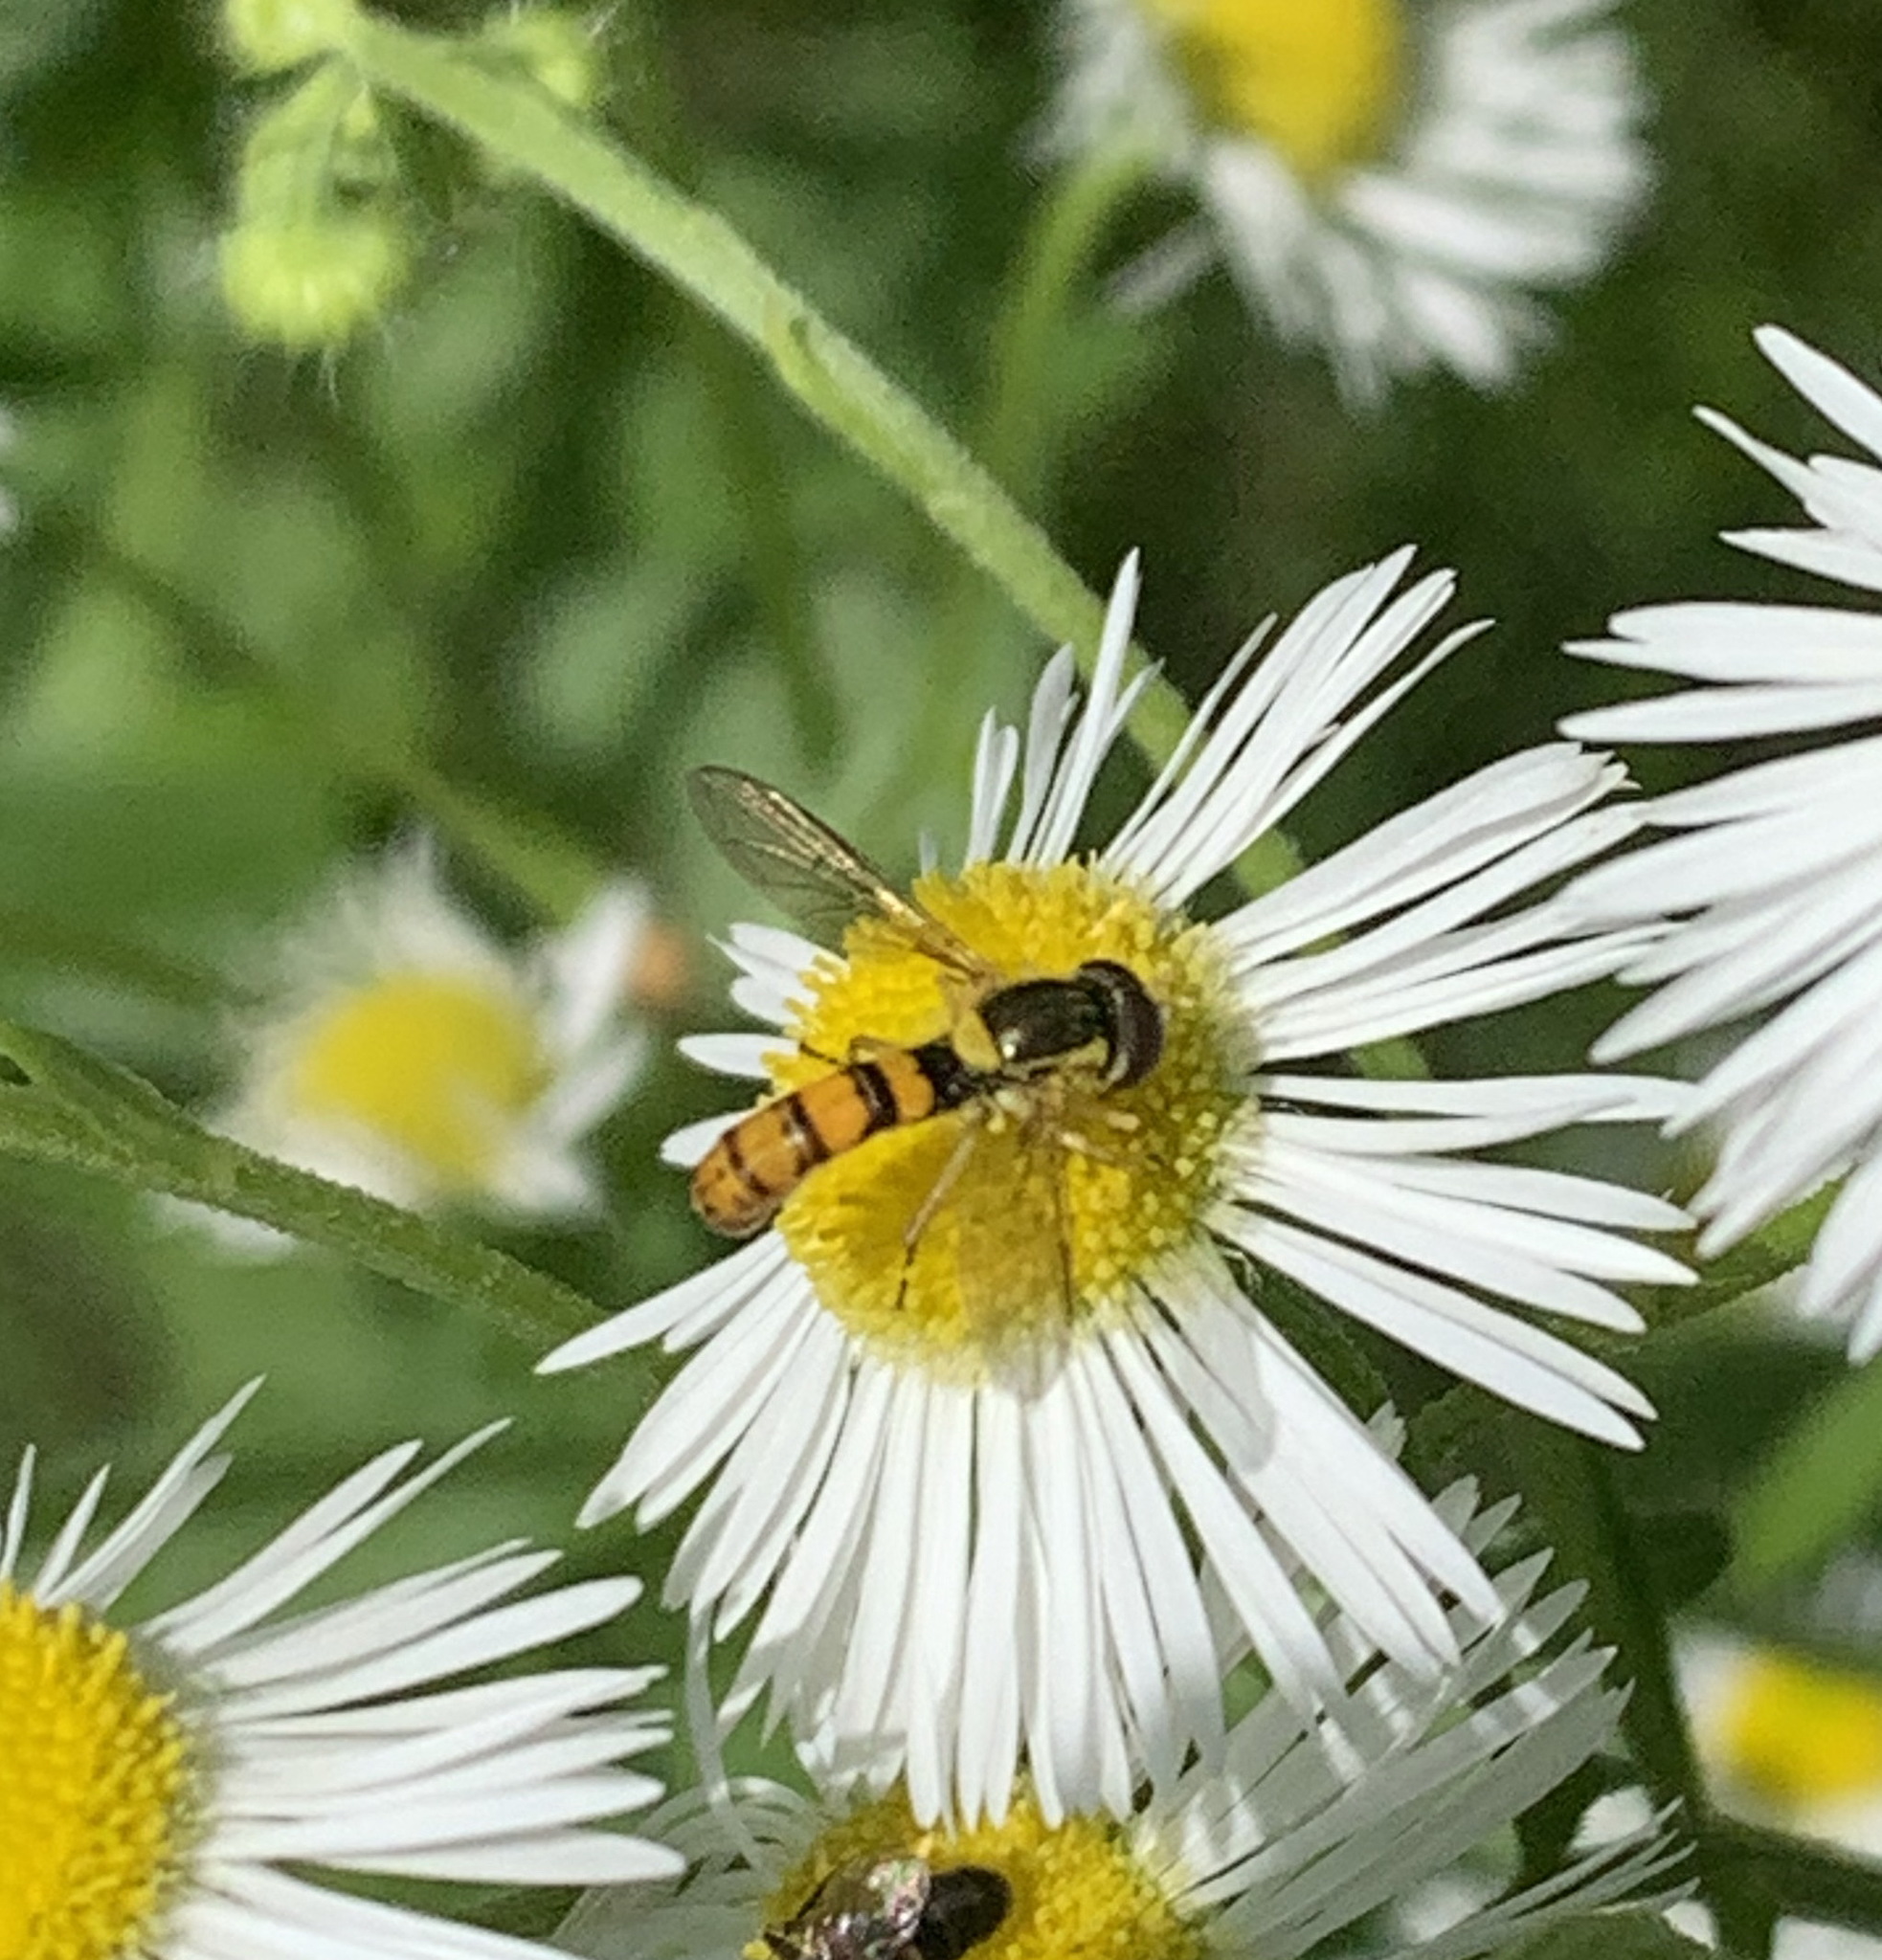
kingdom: Animalia
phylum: Arthropoda
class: Insecta
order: Diptera
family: Syrphidae
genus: Sphaerophoria
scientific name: Sphaerophoria
